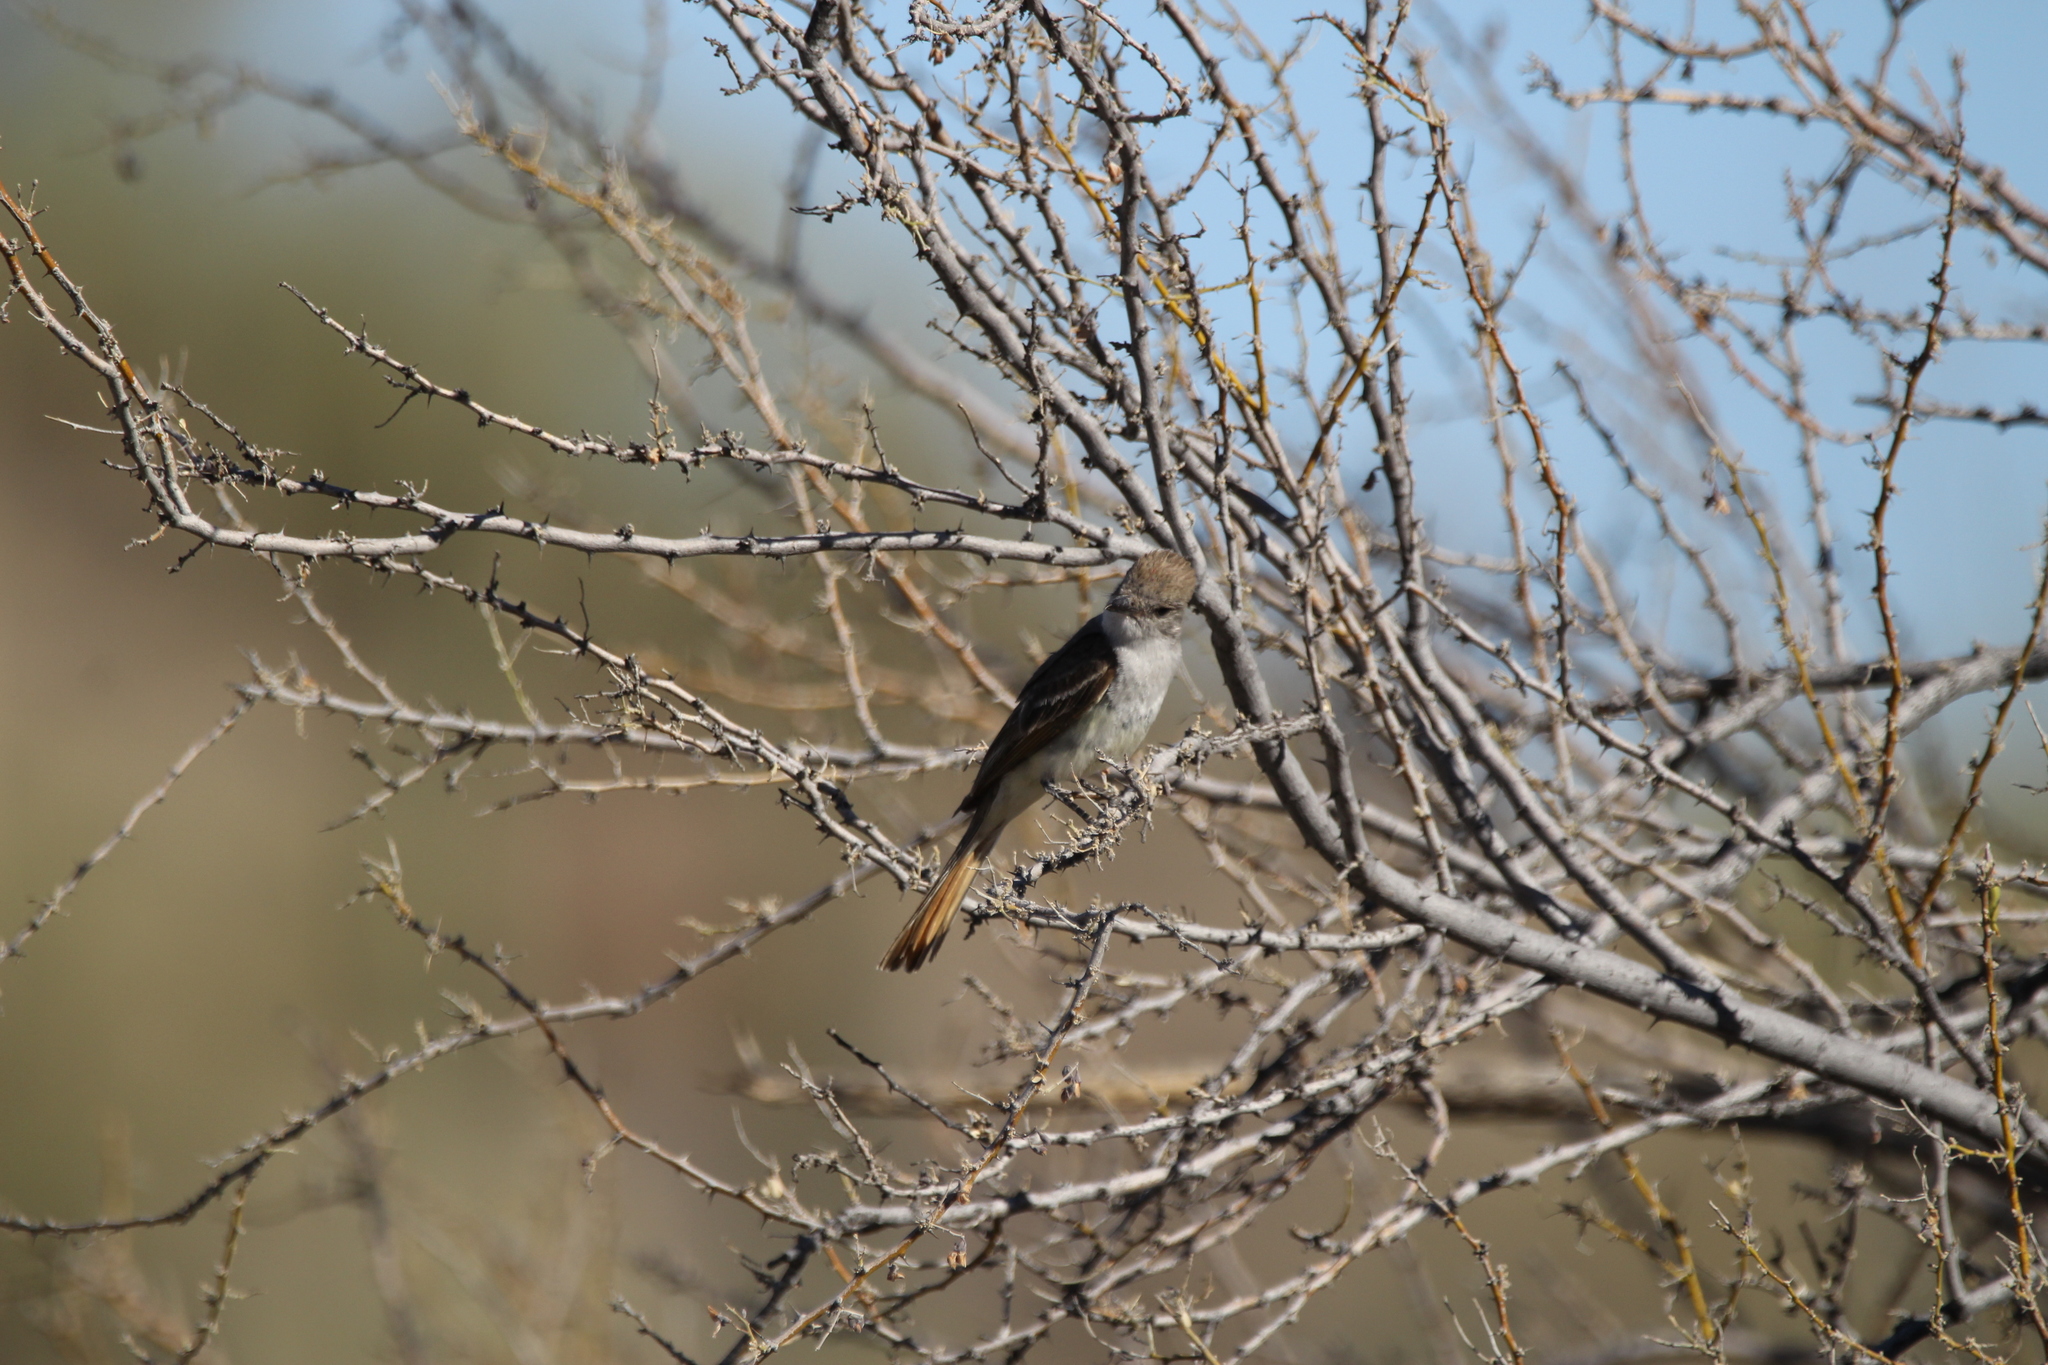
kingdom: Animalia
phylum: Chordata
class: Aves
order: Passeriformes
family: Tyrannidae
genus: Myiarchus
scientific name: Myiarchus cinerascens
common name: Ash-throated flycatcher
